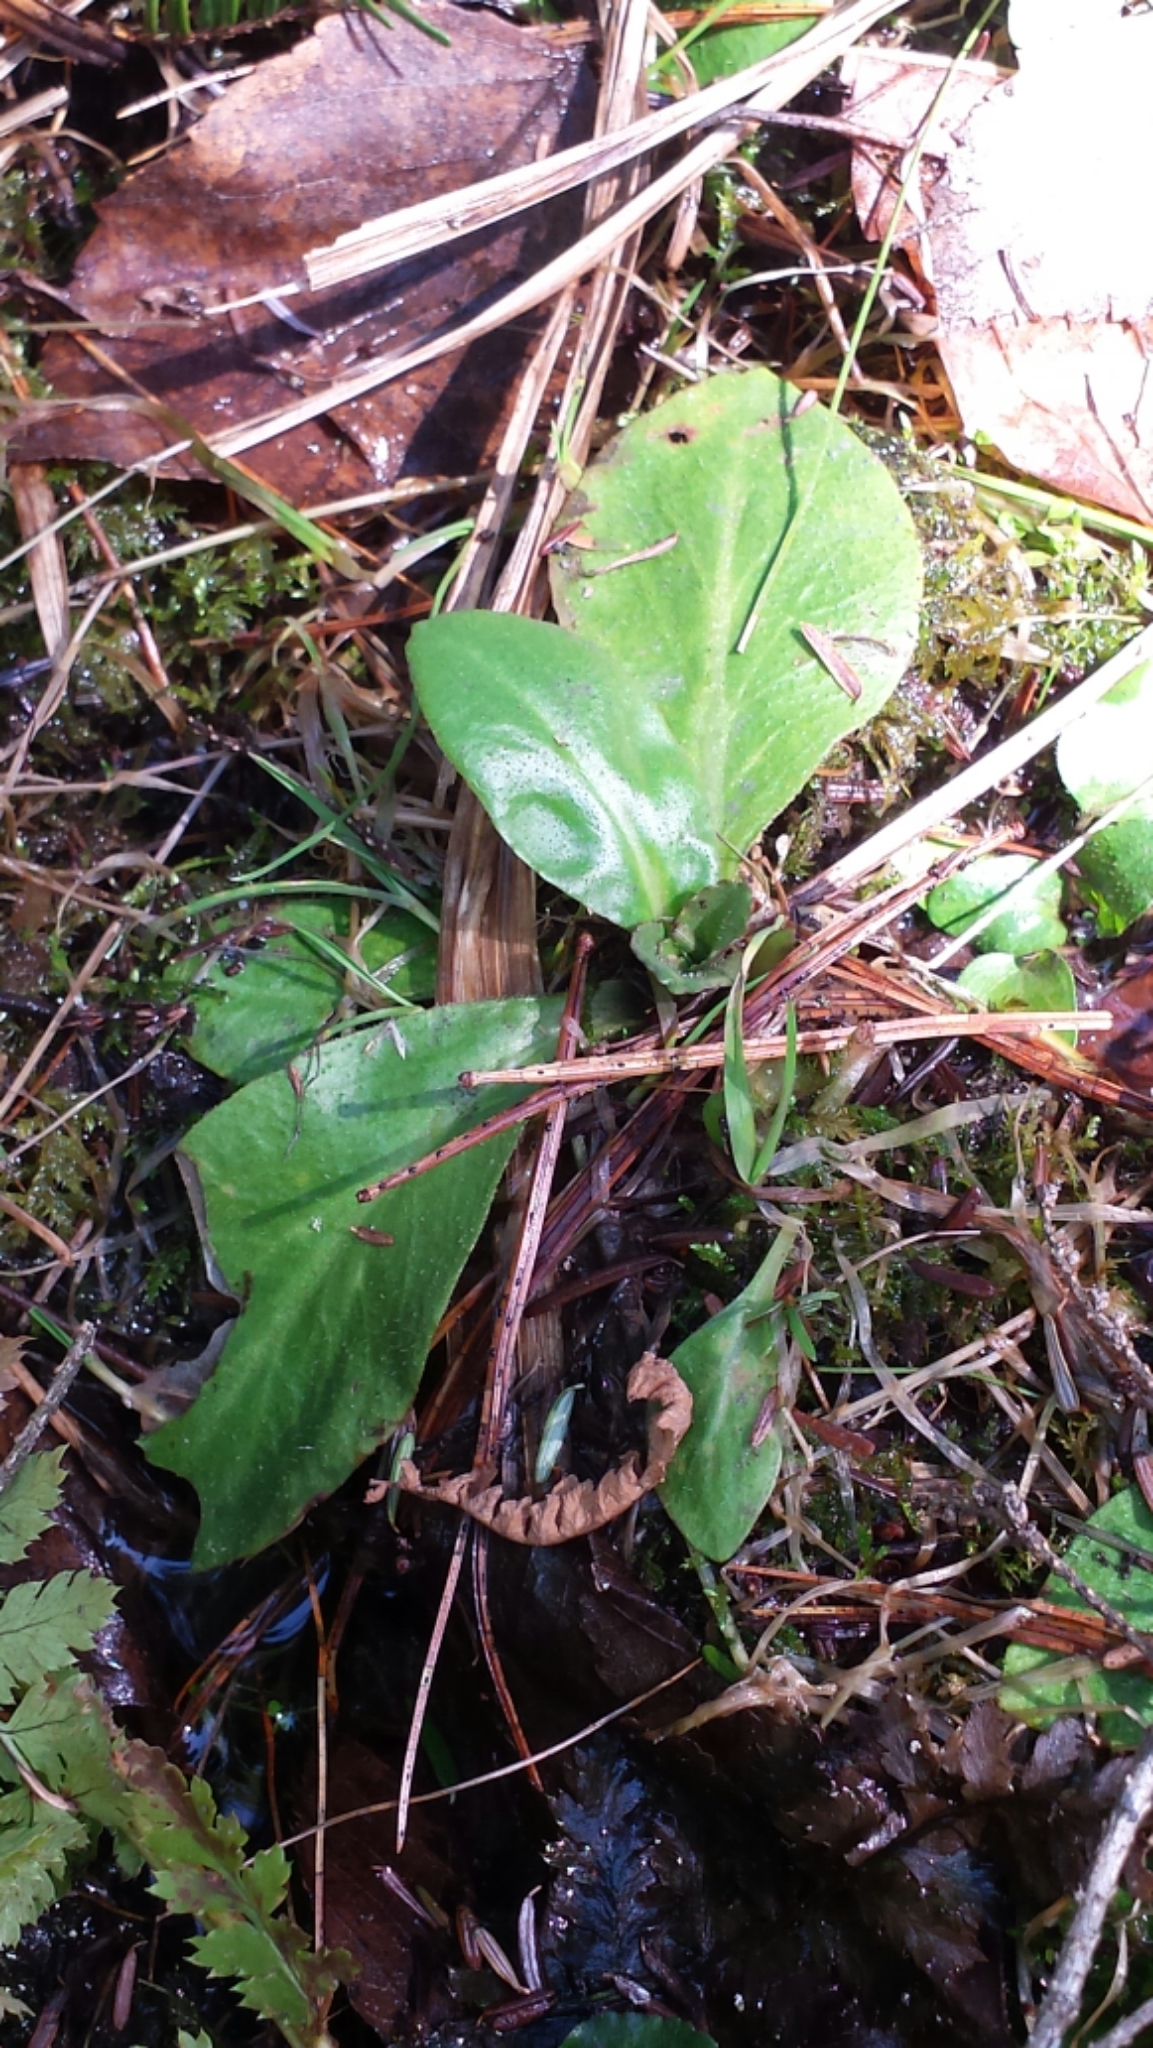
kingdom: Plantae
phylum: Tracheophyta
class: Magnoliopsida
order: Saxifragales
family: Saxifragaceae
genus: Micranthes
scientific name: Micranthes pensylvanica
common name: Marsh saxifrage
